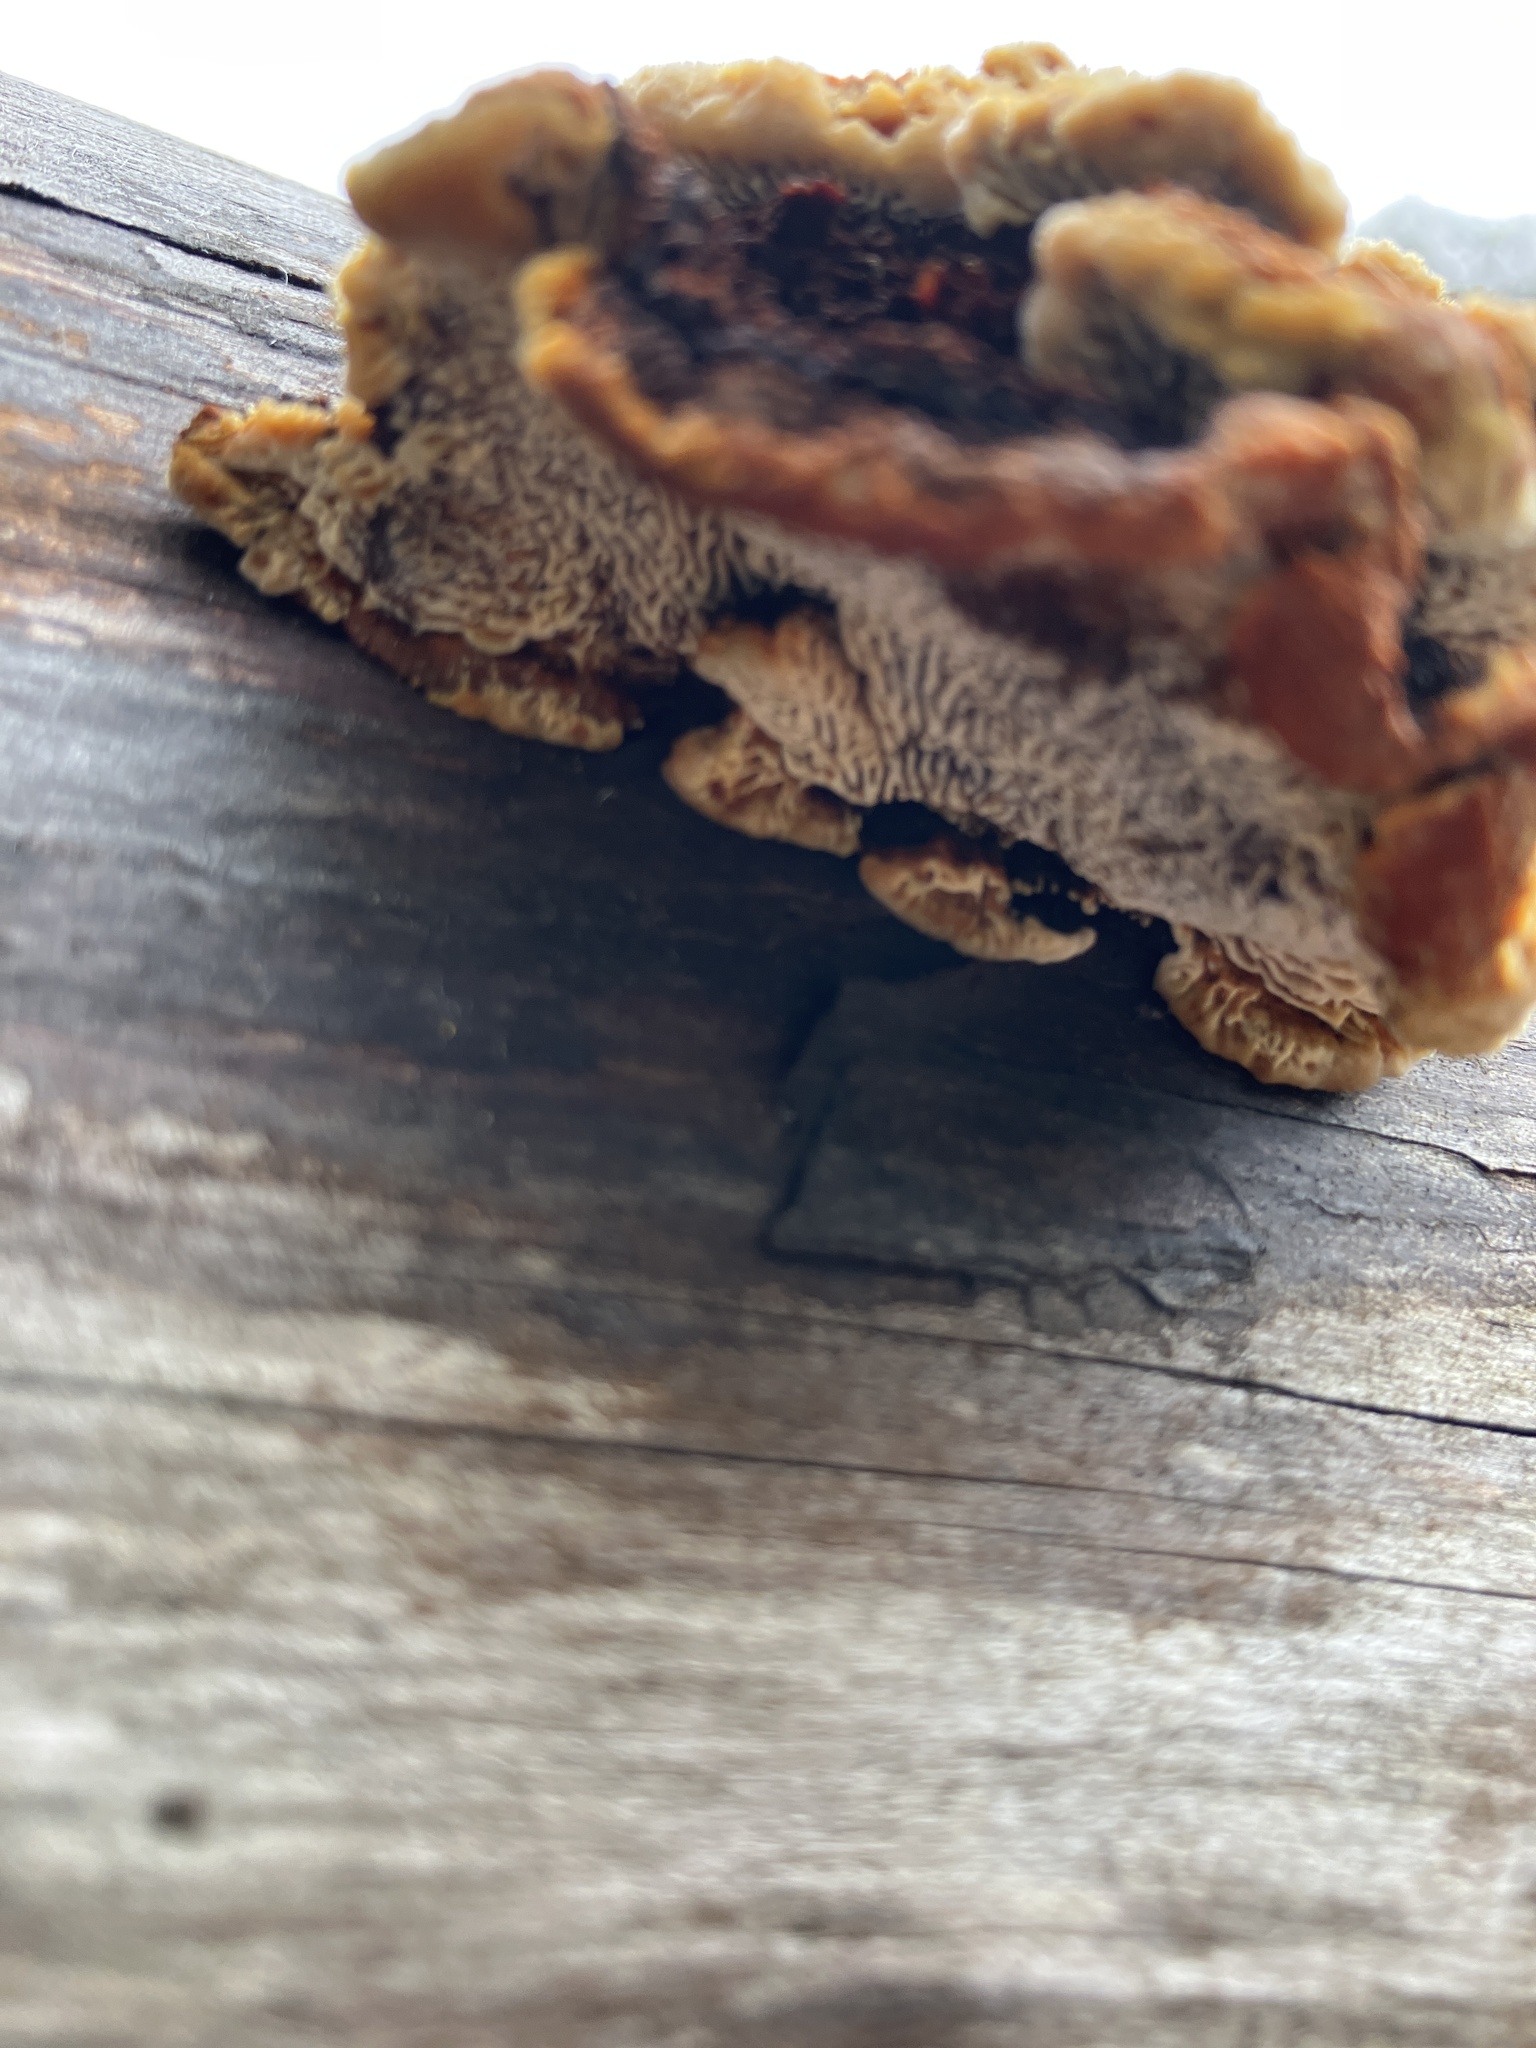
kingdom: Fungi
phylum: Basidiomycota
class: Agaricomycetes
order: Gloeophyllales
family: Gloeophyllaceae
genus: Gloeophyllum
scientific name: Gloeophyllum sepiarium
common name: Conifer mazegill
